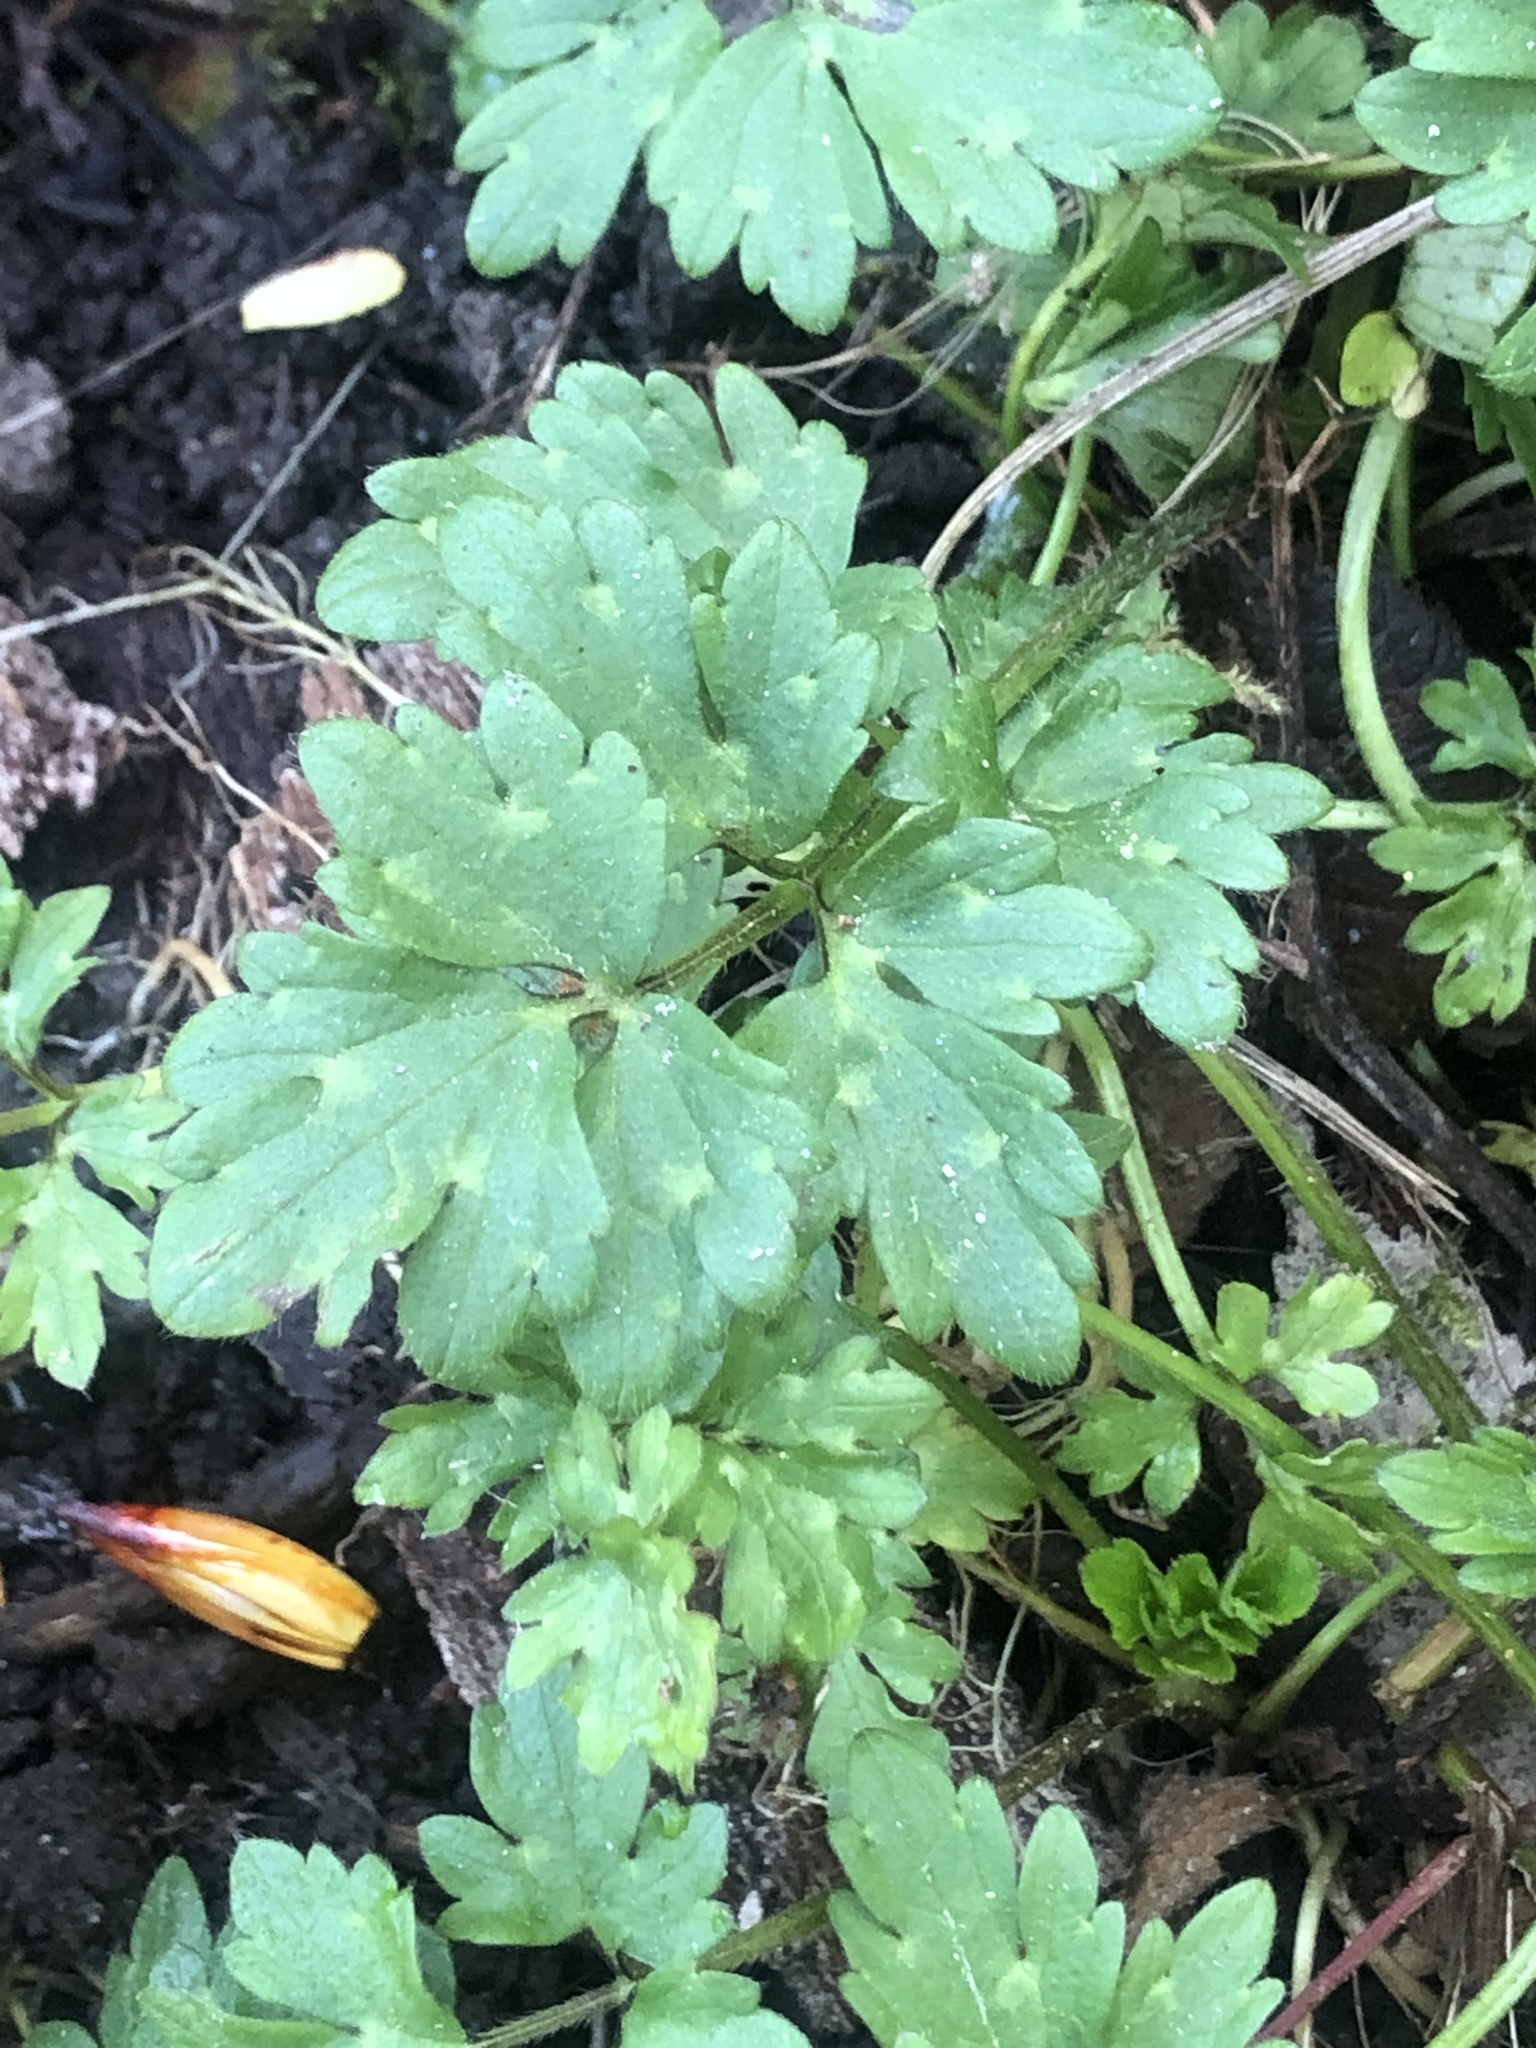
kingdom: Plantae
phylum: Tracheophyta
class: Magnoliopsida
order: Ranunculales
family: Ranunculaceae
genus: Ranunculus
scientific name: Ranunculus repens
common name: Creeping buttercup
